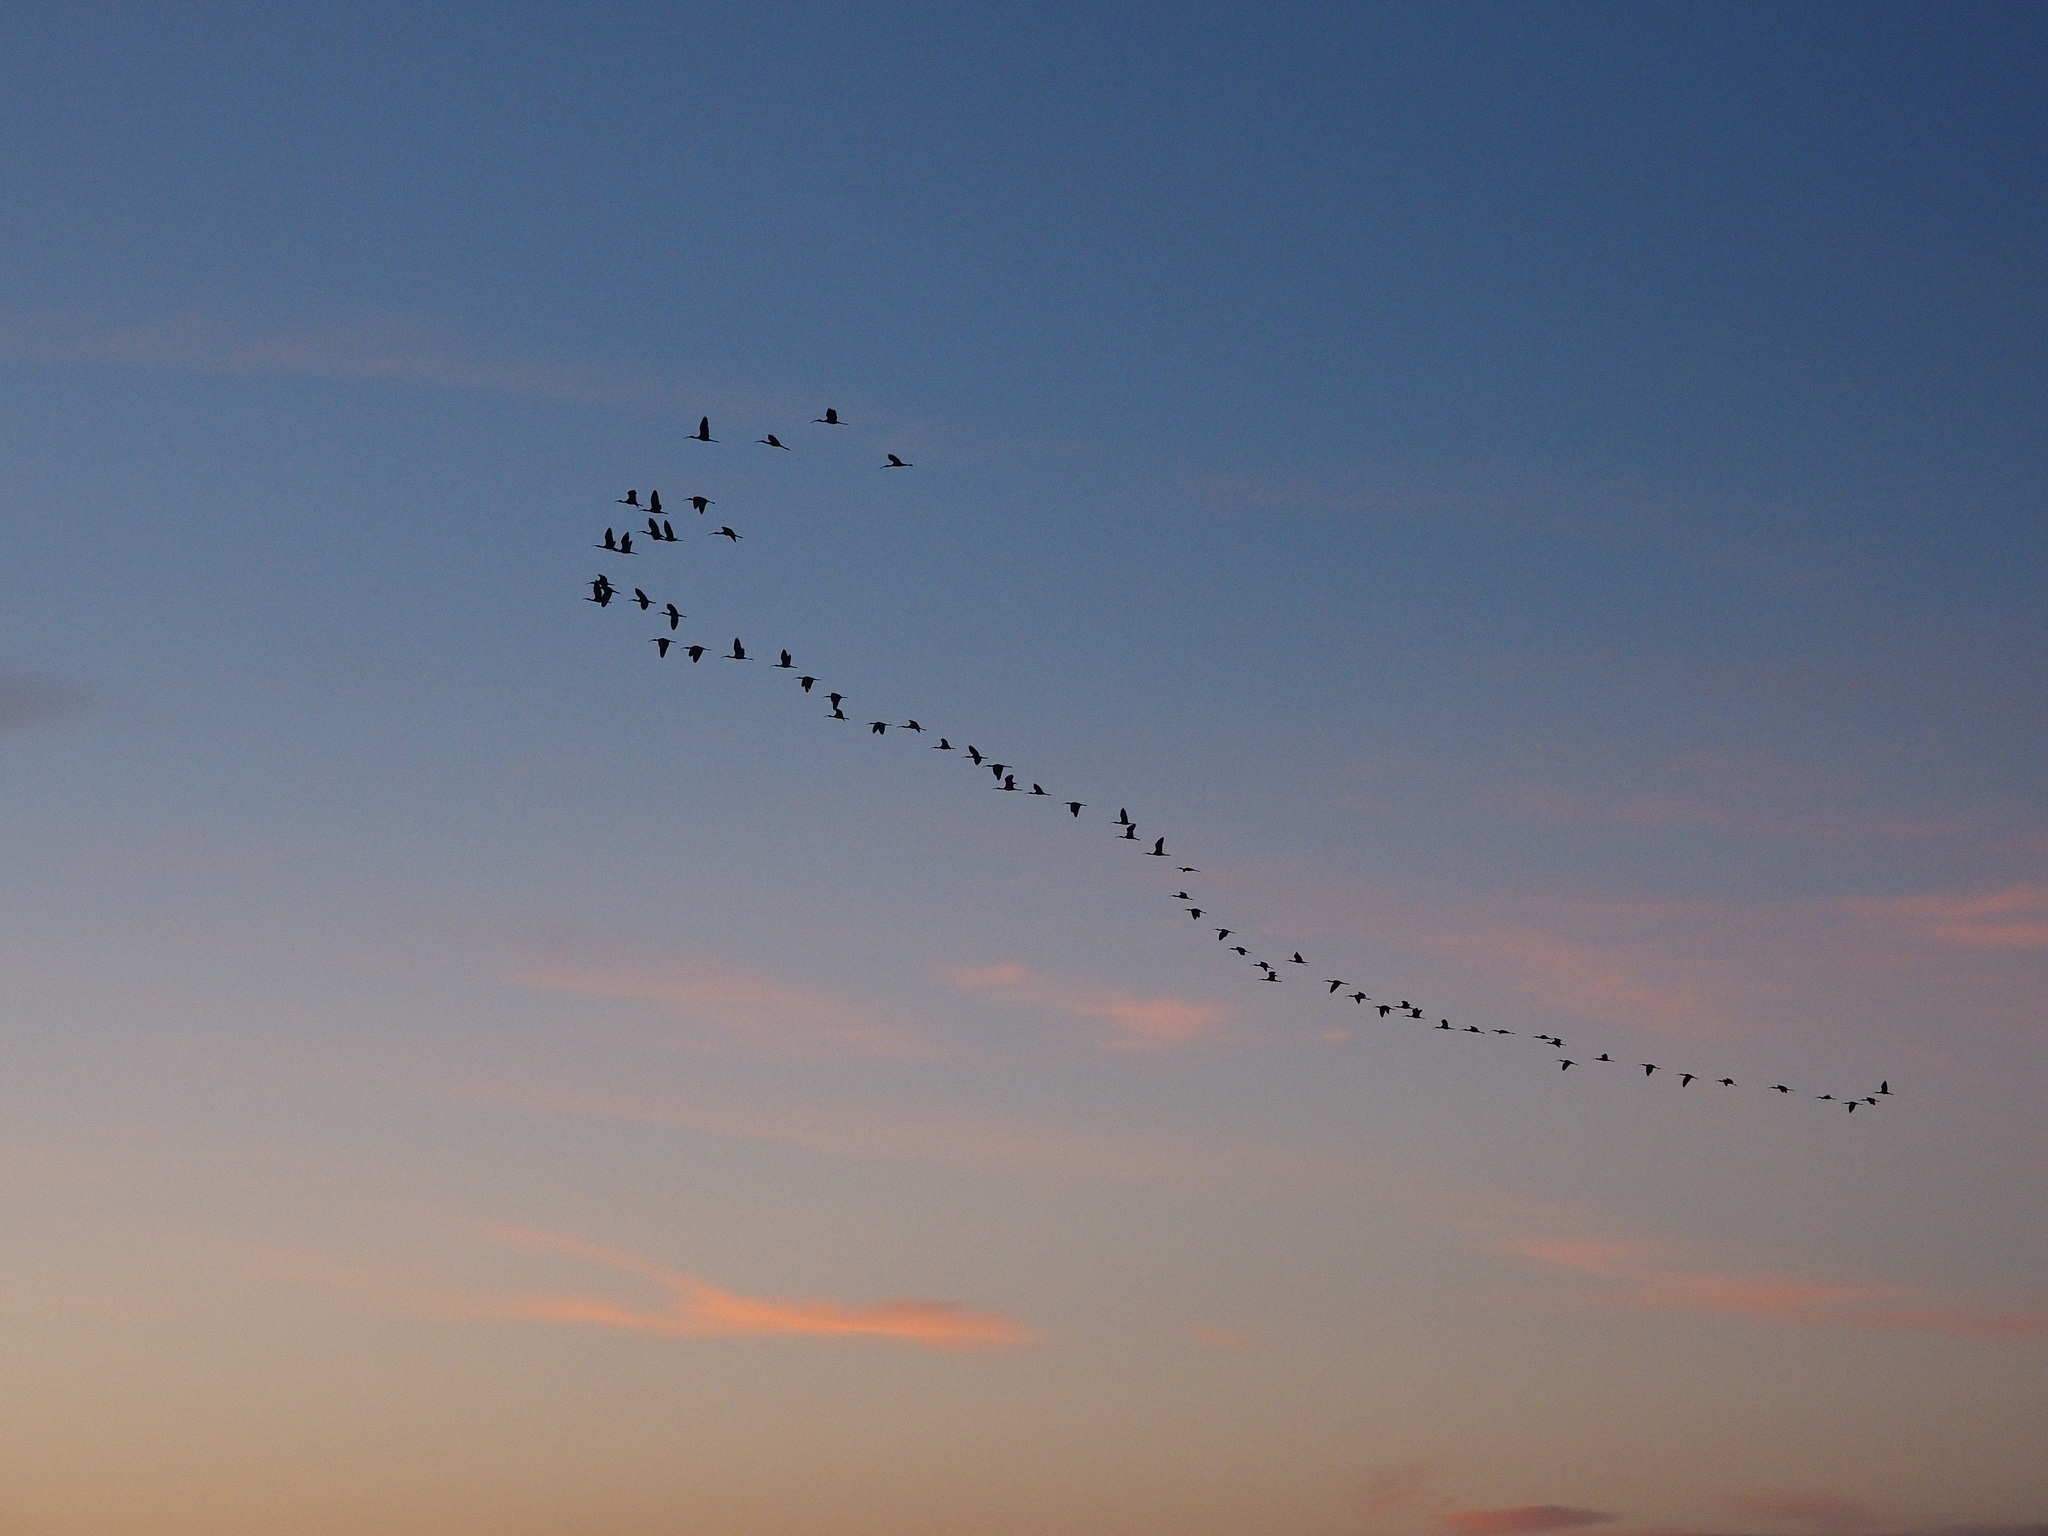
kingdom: Animalia
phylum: Chordata
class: Aves
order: Pelecaniformes
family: Threskiornithidae
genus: Plegadis
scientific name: Plegadis falcinellus
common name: Glossy ibis
